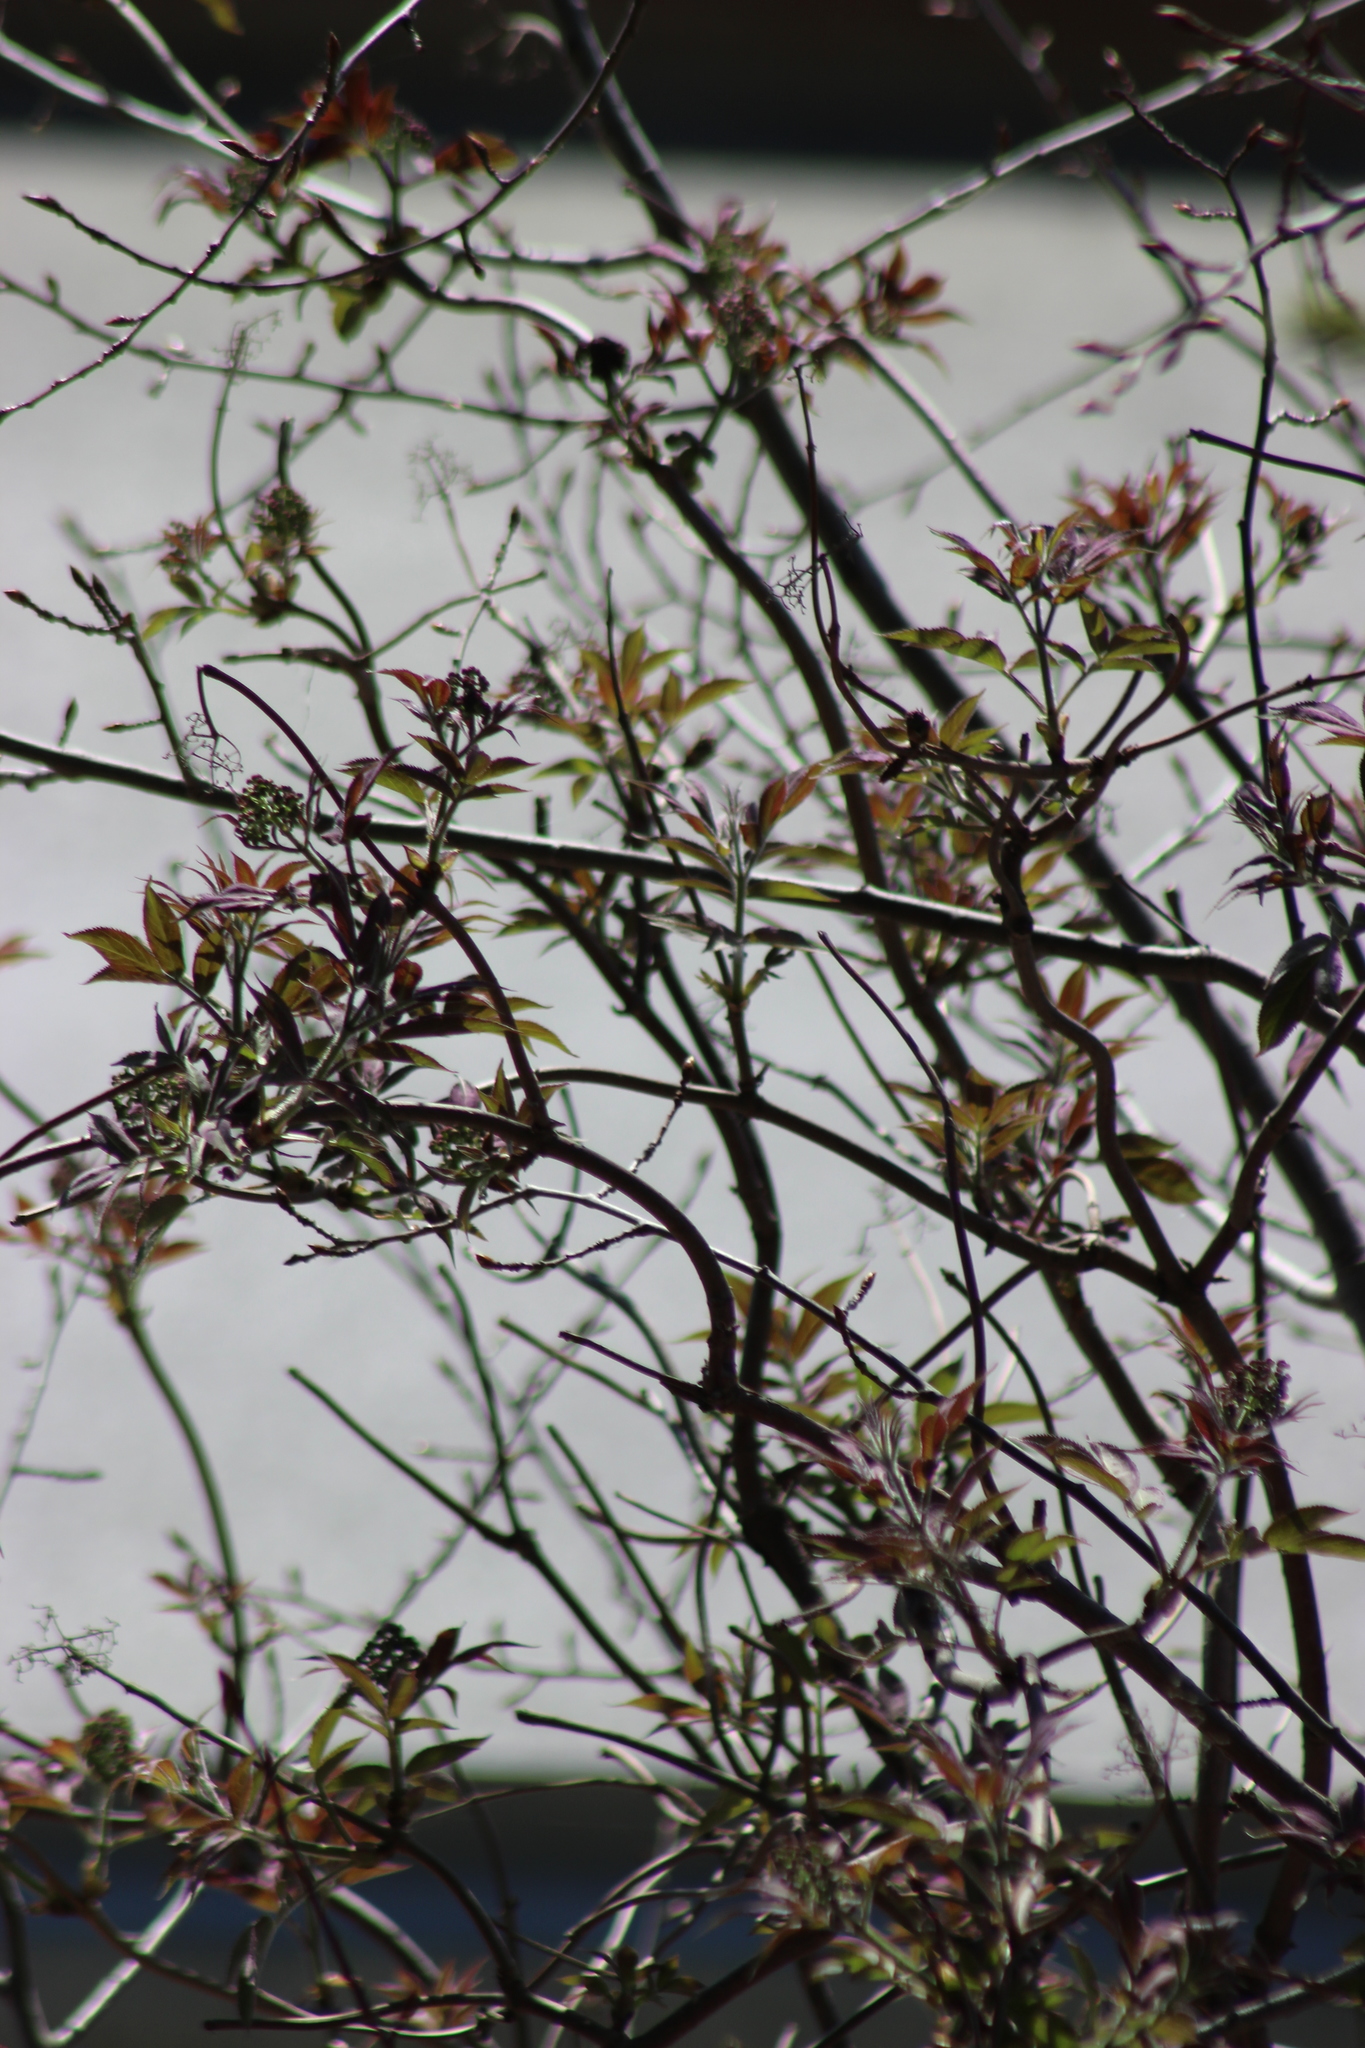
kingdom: Plantae
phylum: Tracheophyta
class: Magnoliopsida
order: Dipsacales
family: Viburnaceae
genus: Sambucus
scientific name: Sambucus sibirica
